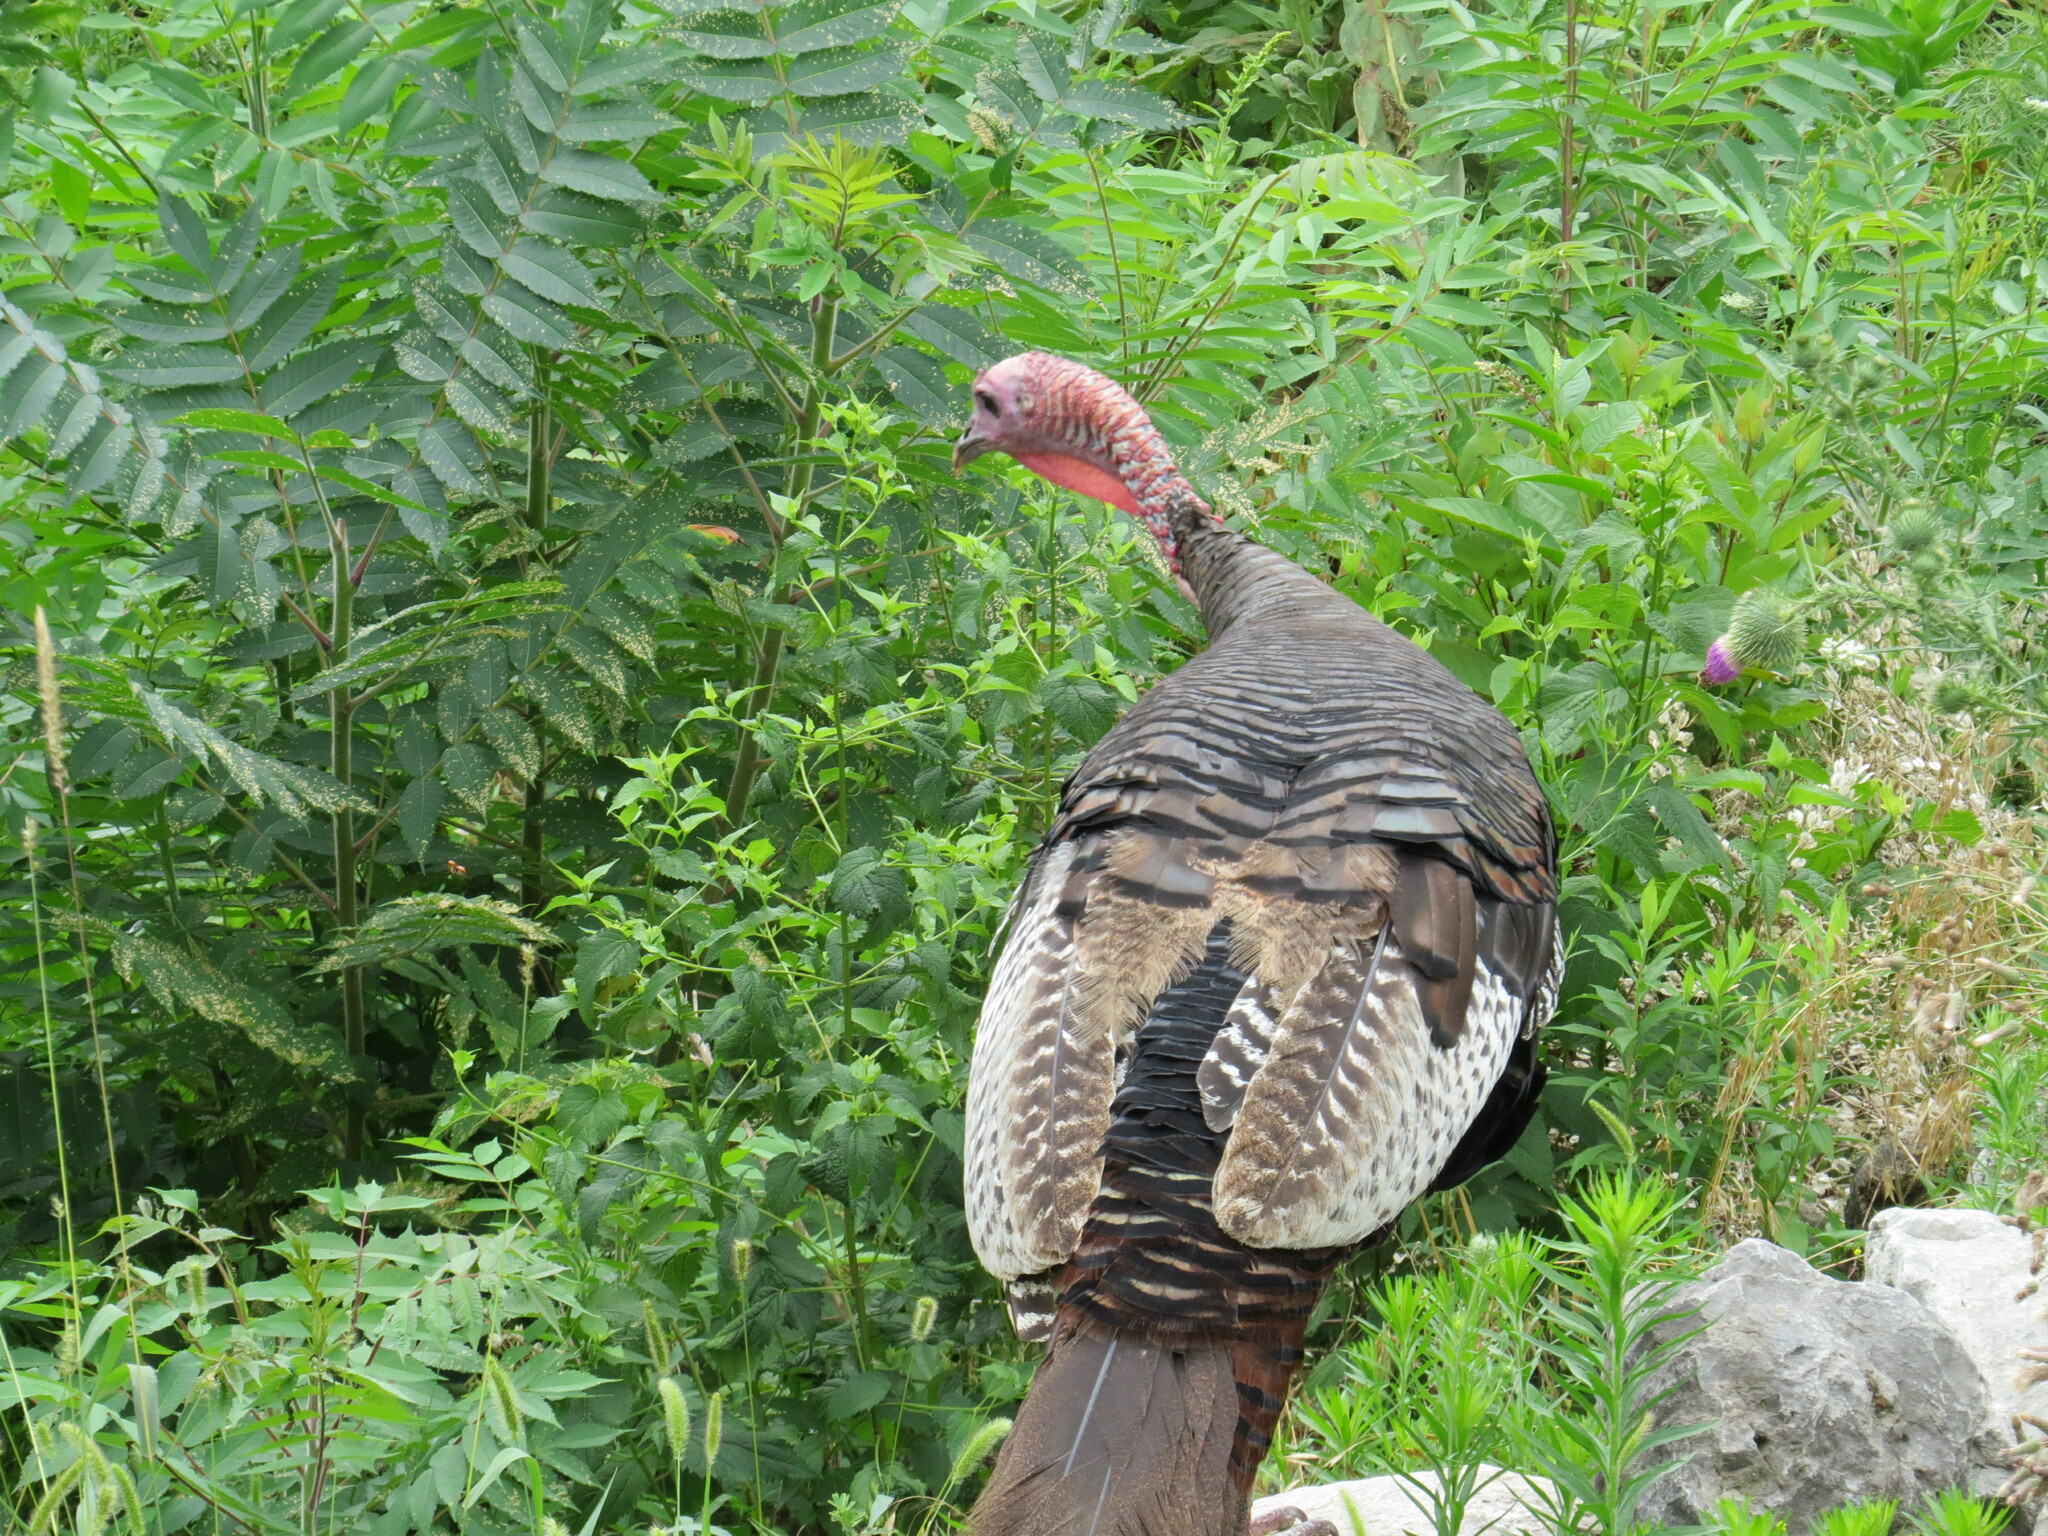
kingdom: Animalia
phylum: Chordata
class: Aves
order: Galliformes
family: Phasianidae
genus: Meleagris
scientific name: Meleagris gallopavo
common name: Wild turkey
